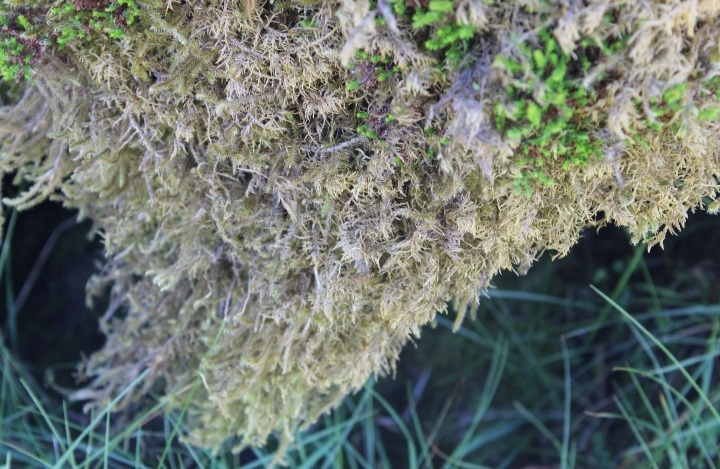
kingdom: Plantae
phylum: Bryophyta
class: Bryopsida
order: Hypnales
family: Hylocomiaceae
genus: Hylocomium
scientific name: Hylocomium splendens
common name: Stairstep moss
